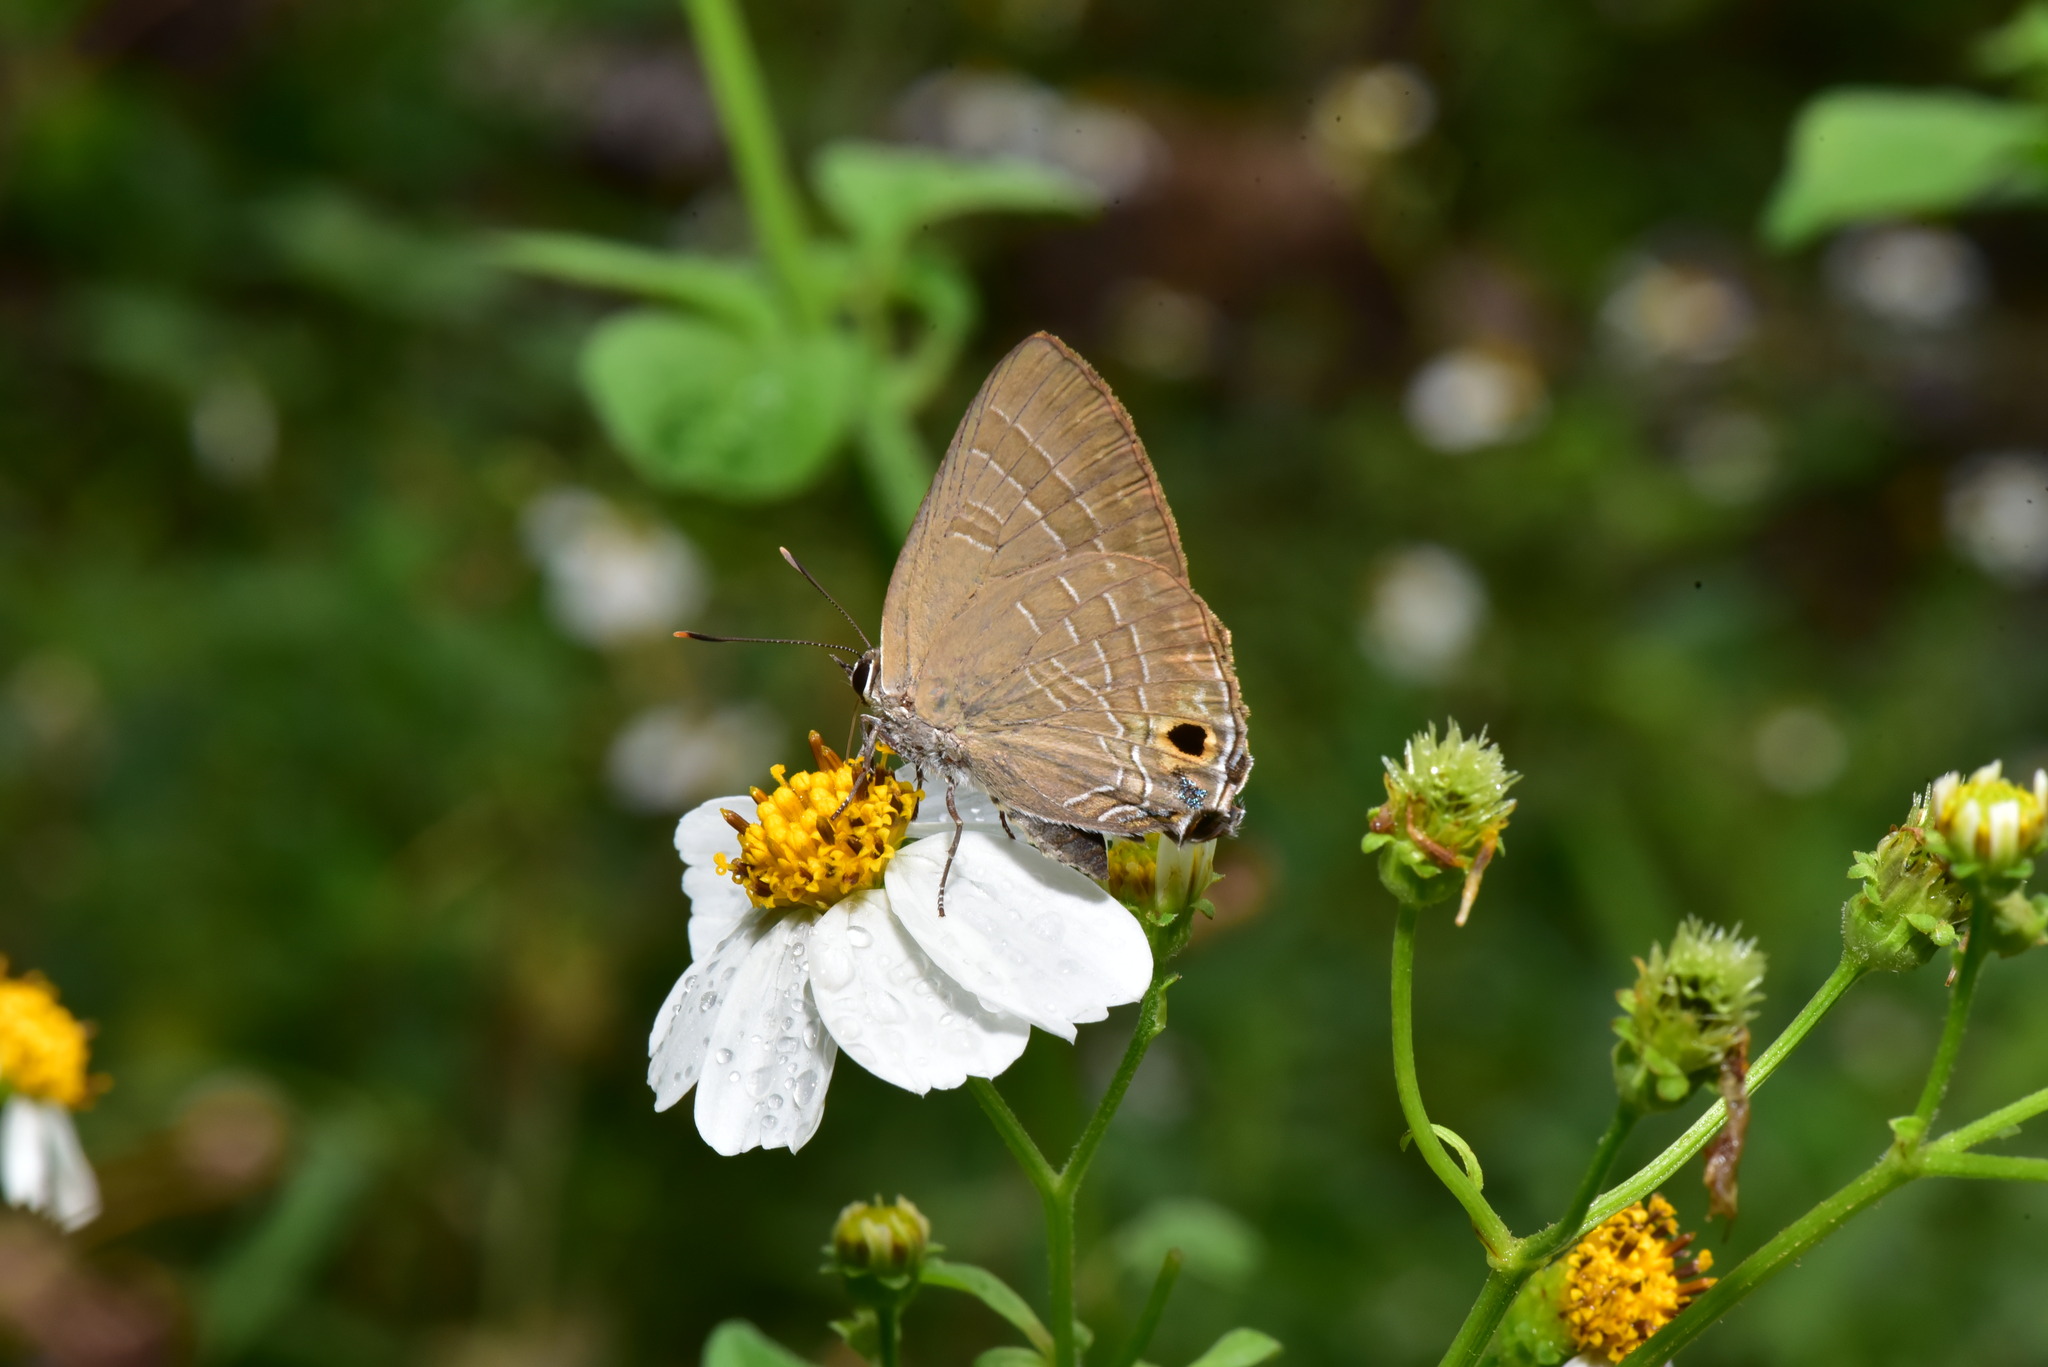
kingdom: Animalia
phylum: Arthropoda
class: Insecta
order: Lepidoptera
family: Lycaenidae
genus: Deudorix
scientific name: Deudorix epijarbas
